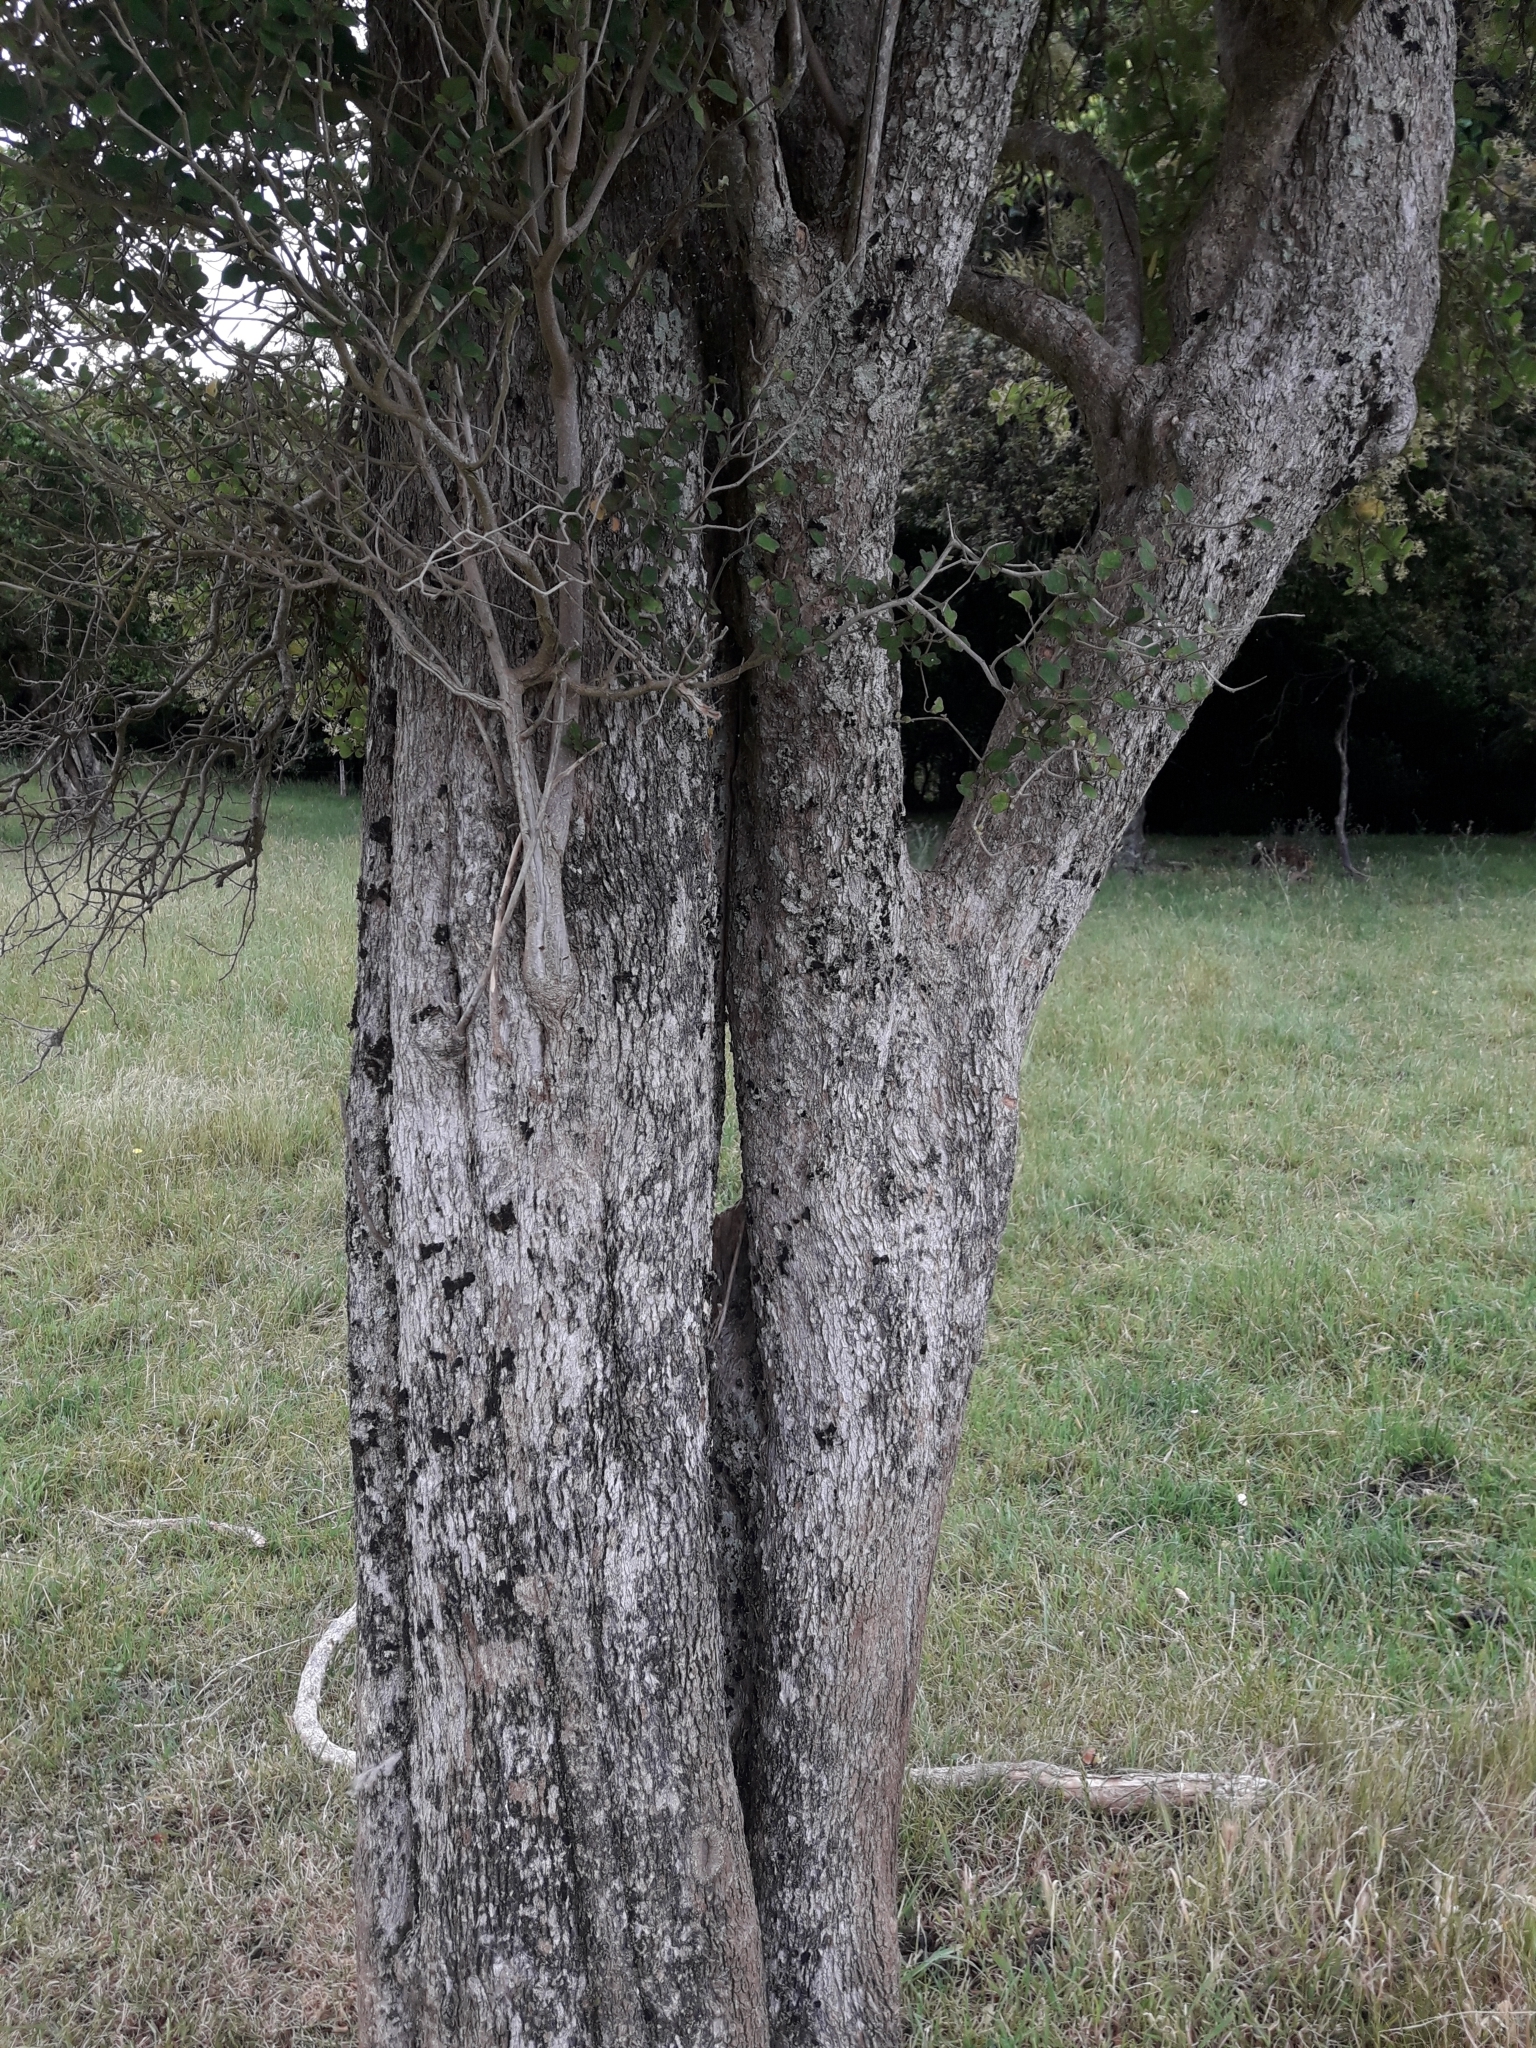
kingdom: Plantae
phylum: Tracheophyta
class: Magnoliopsida
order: Apiales
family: Pennantiaceae
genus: Pennantia
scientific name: Pennantia corymbosa
